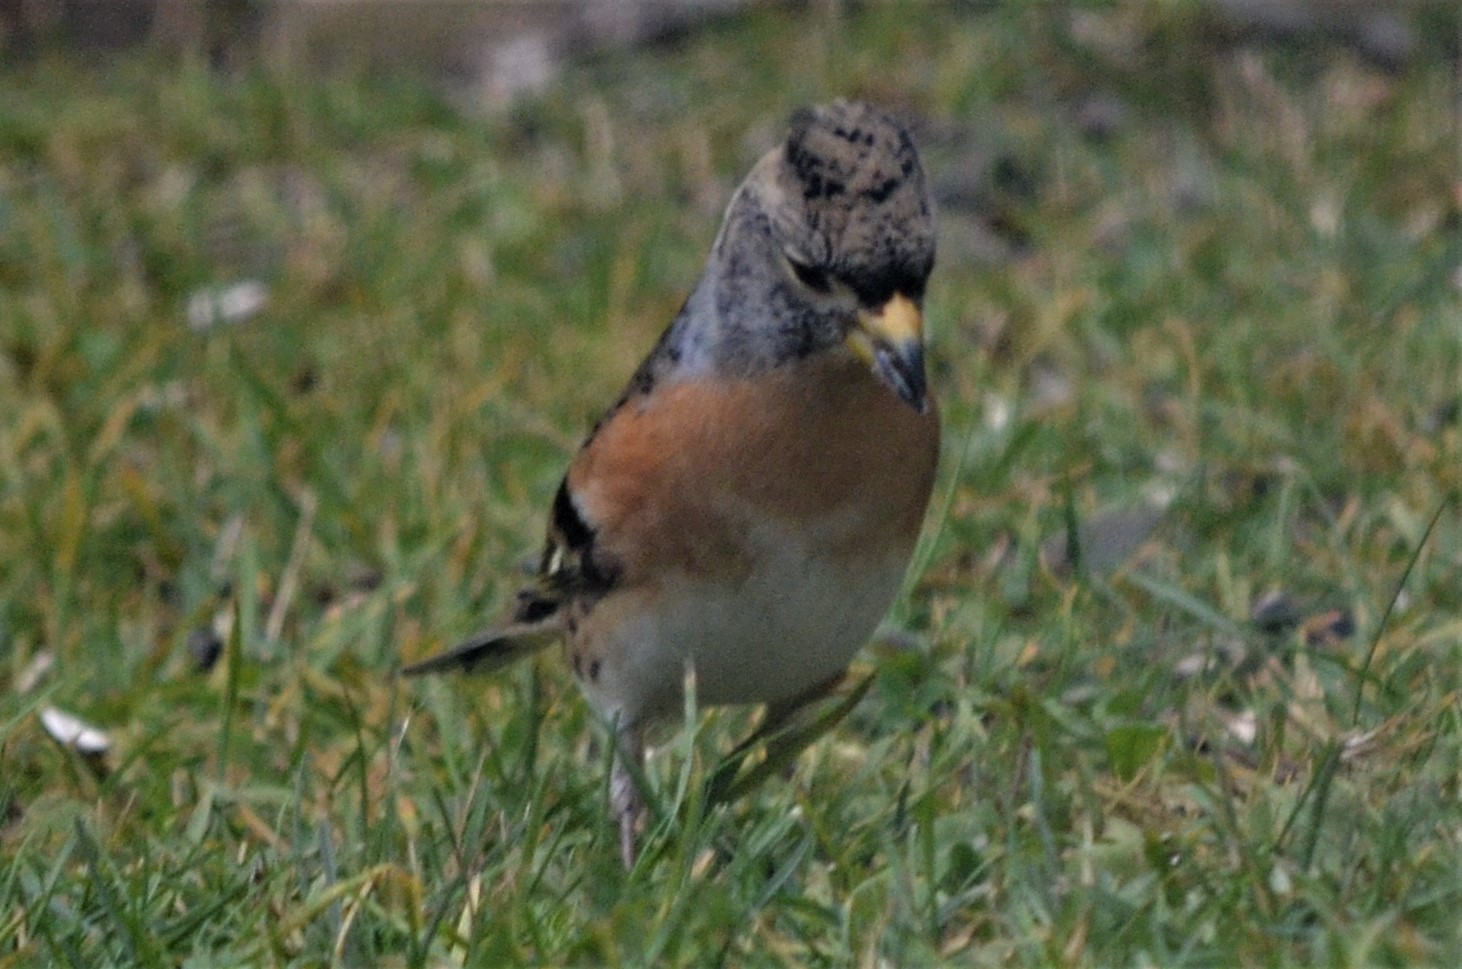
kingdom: Animalia
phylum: Chordata
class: Aves
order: Passeriformes
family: Fringillidae
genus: Fringilla
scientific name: Fringilla montifringilla
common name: Brambling
